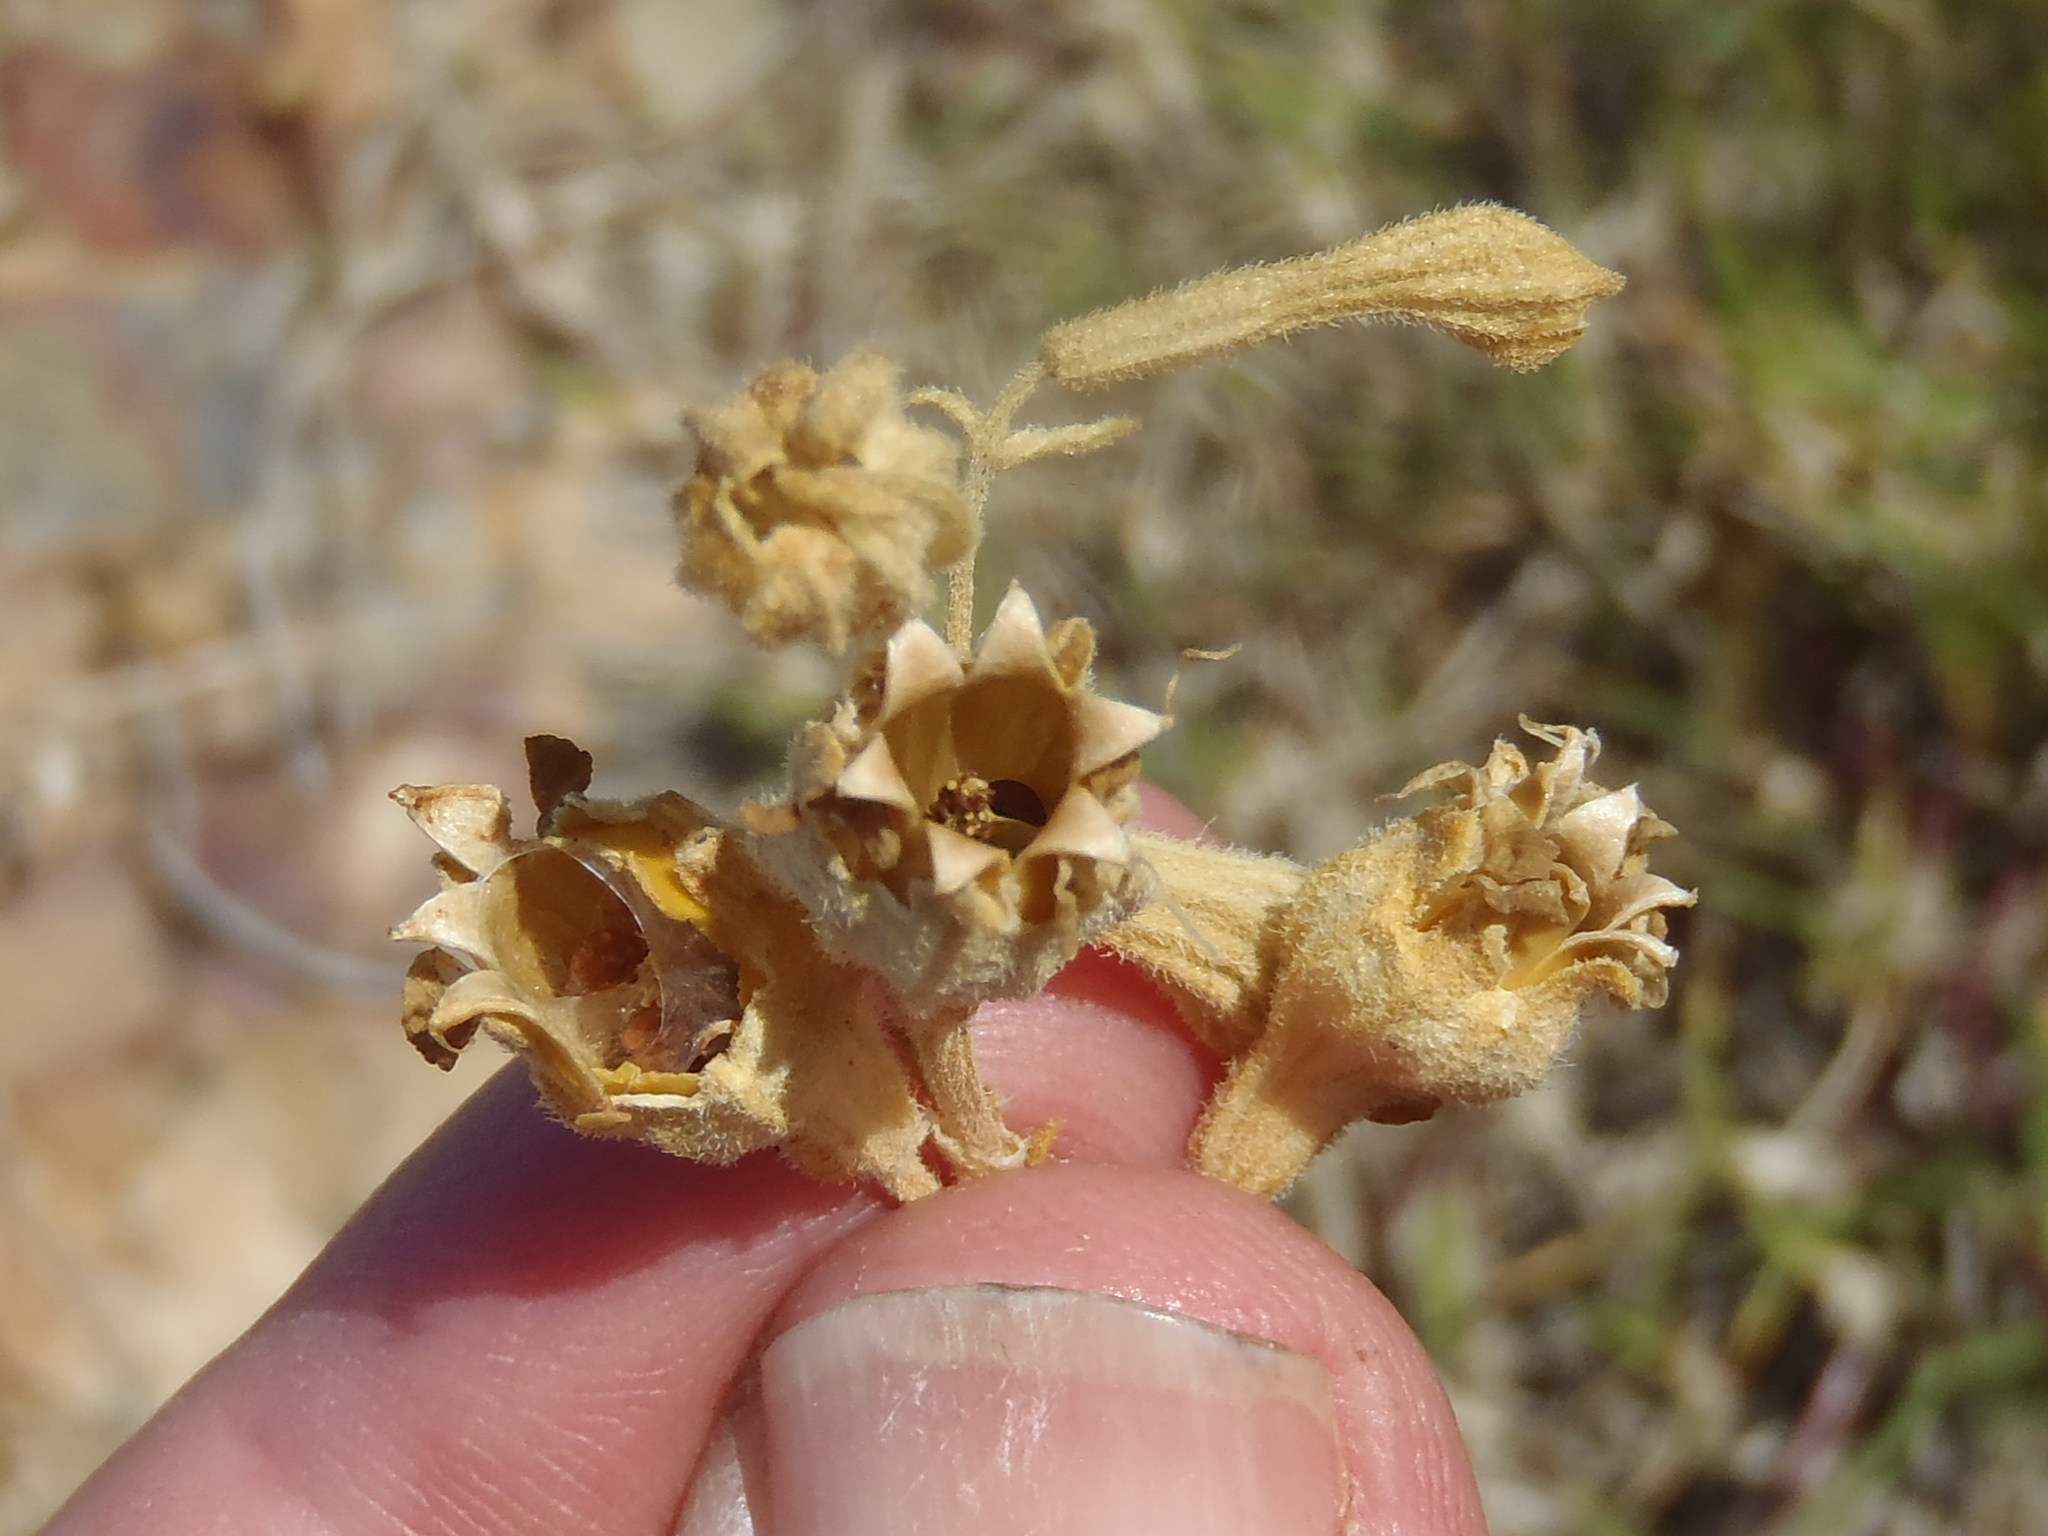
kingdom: Plantae
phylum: Tracheophyta
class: Magnoliopsida
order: Caryophyllales
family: Caryophyllaceae
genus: Silene
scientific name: Silene crassifolia
